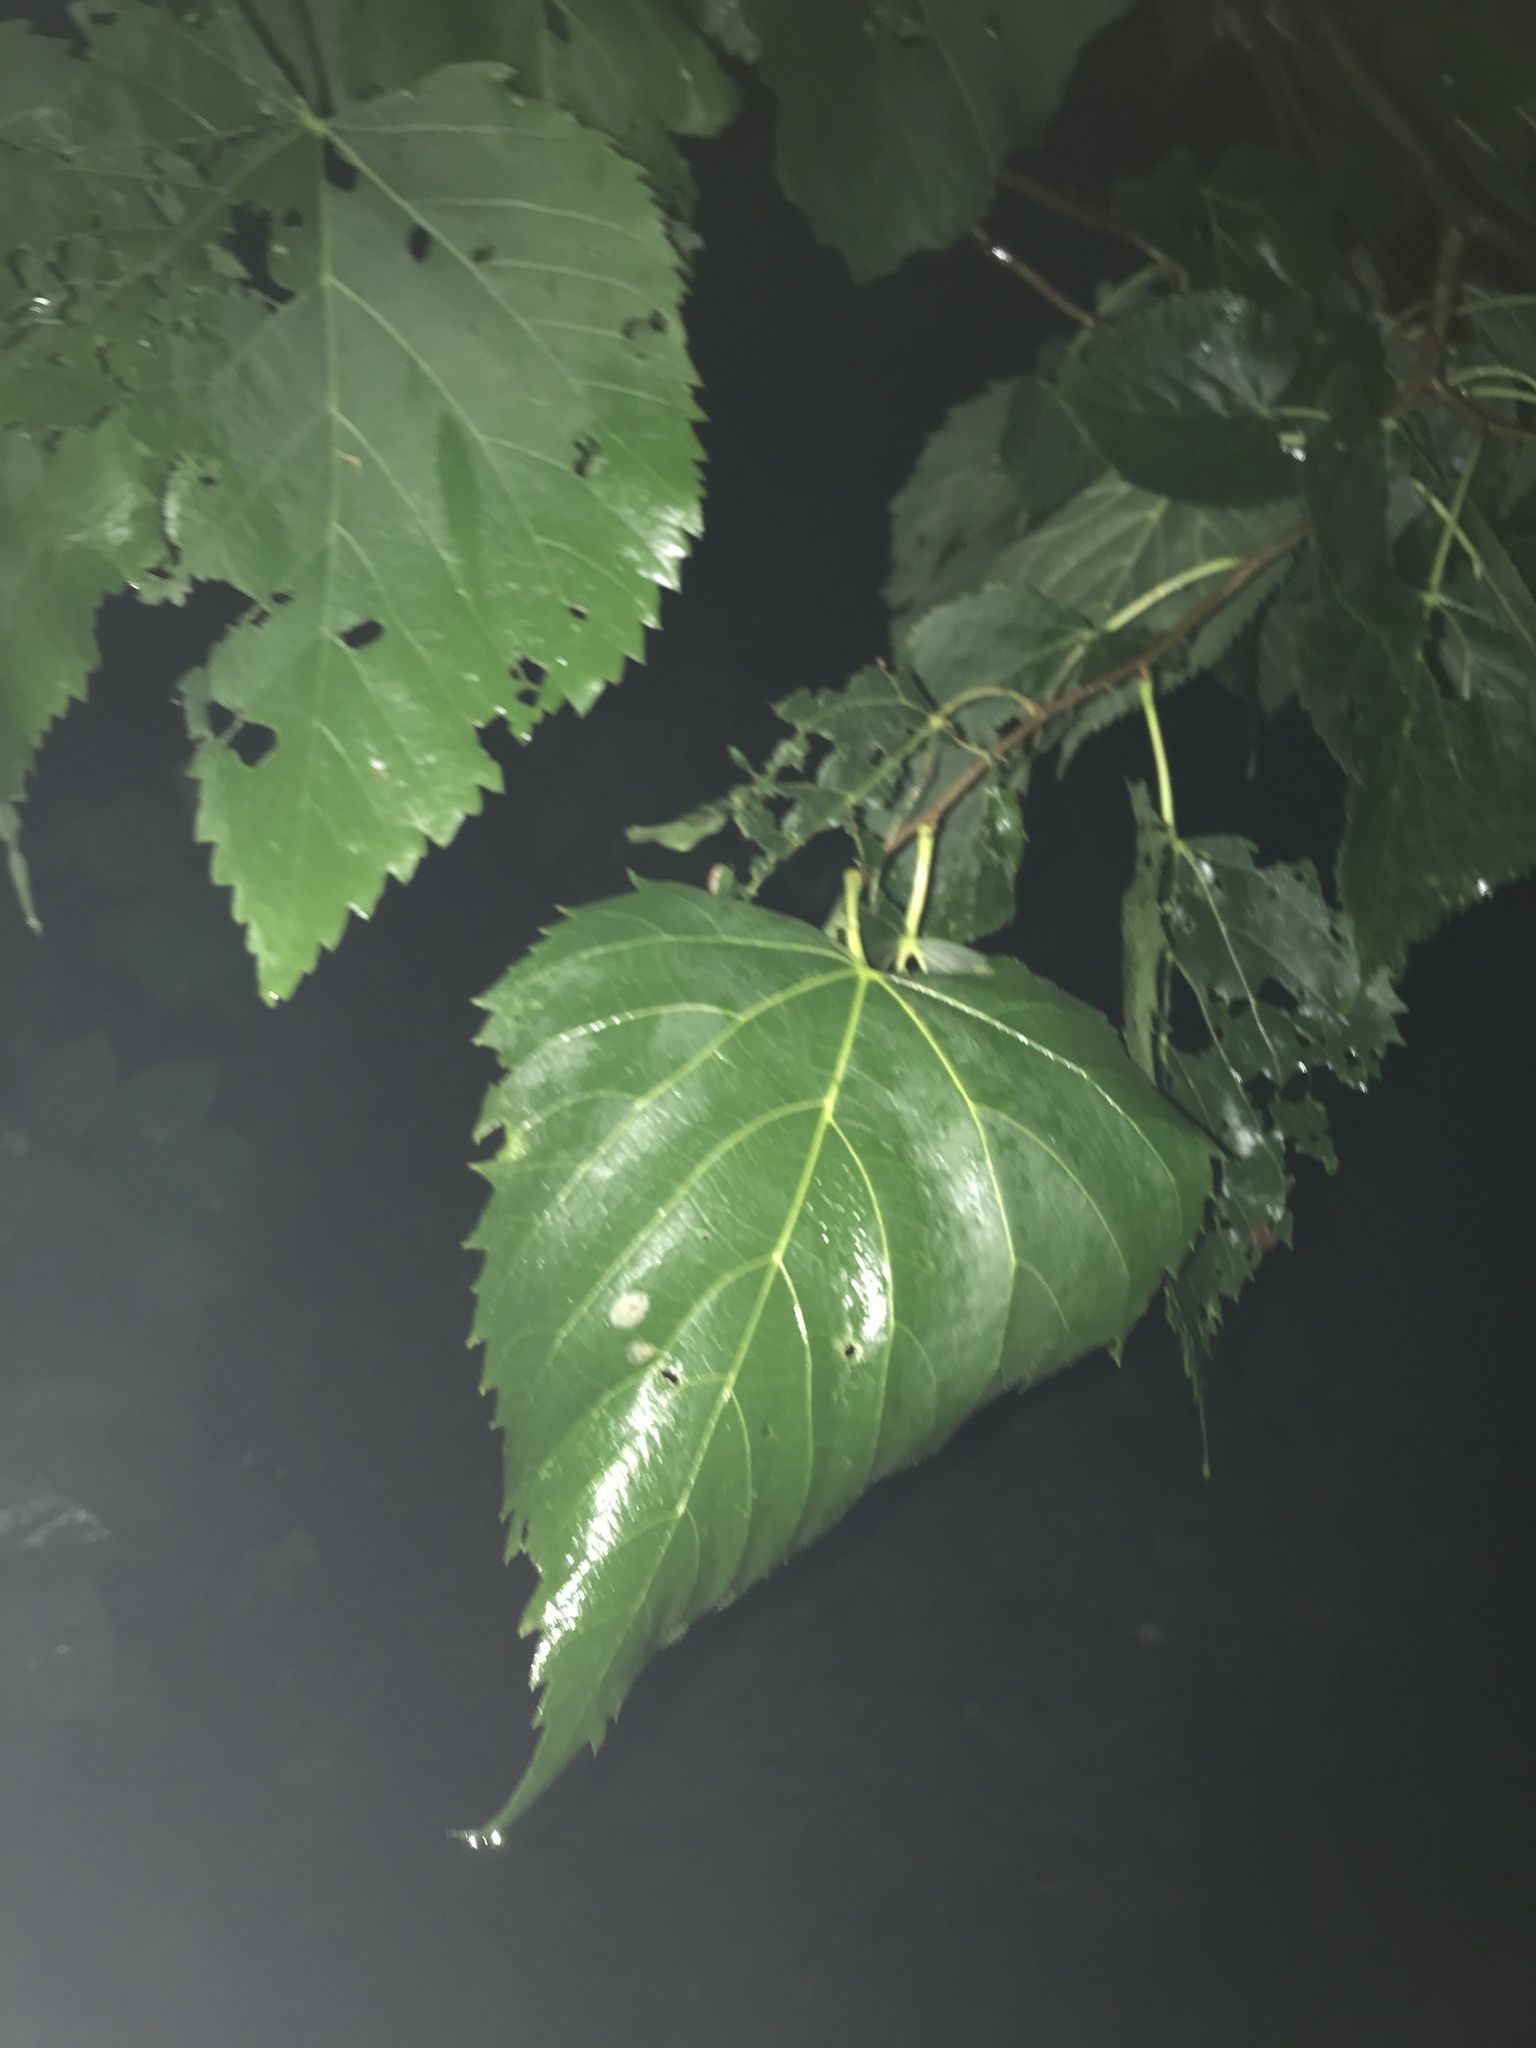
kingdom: Plantae
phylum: Tracheophyta
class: Magnoliopsida
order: Malvales
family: Malvaceae
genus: Tilia
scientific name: Tilia americana
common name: Basswood
